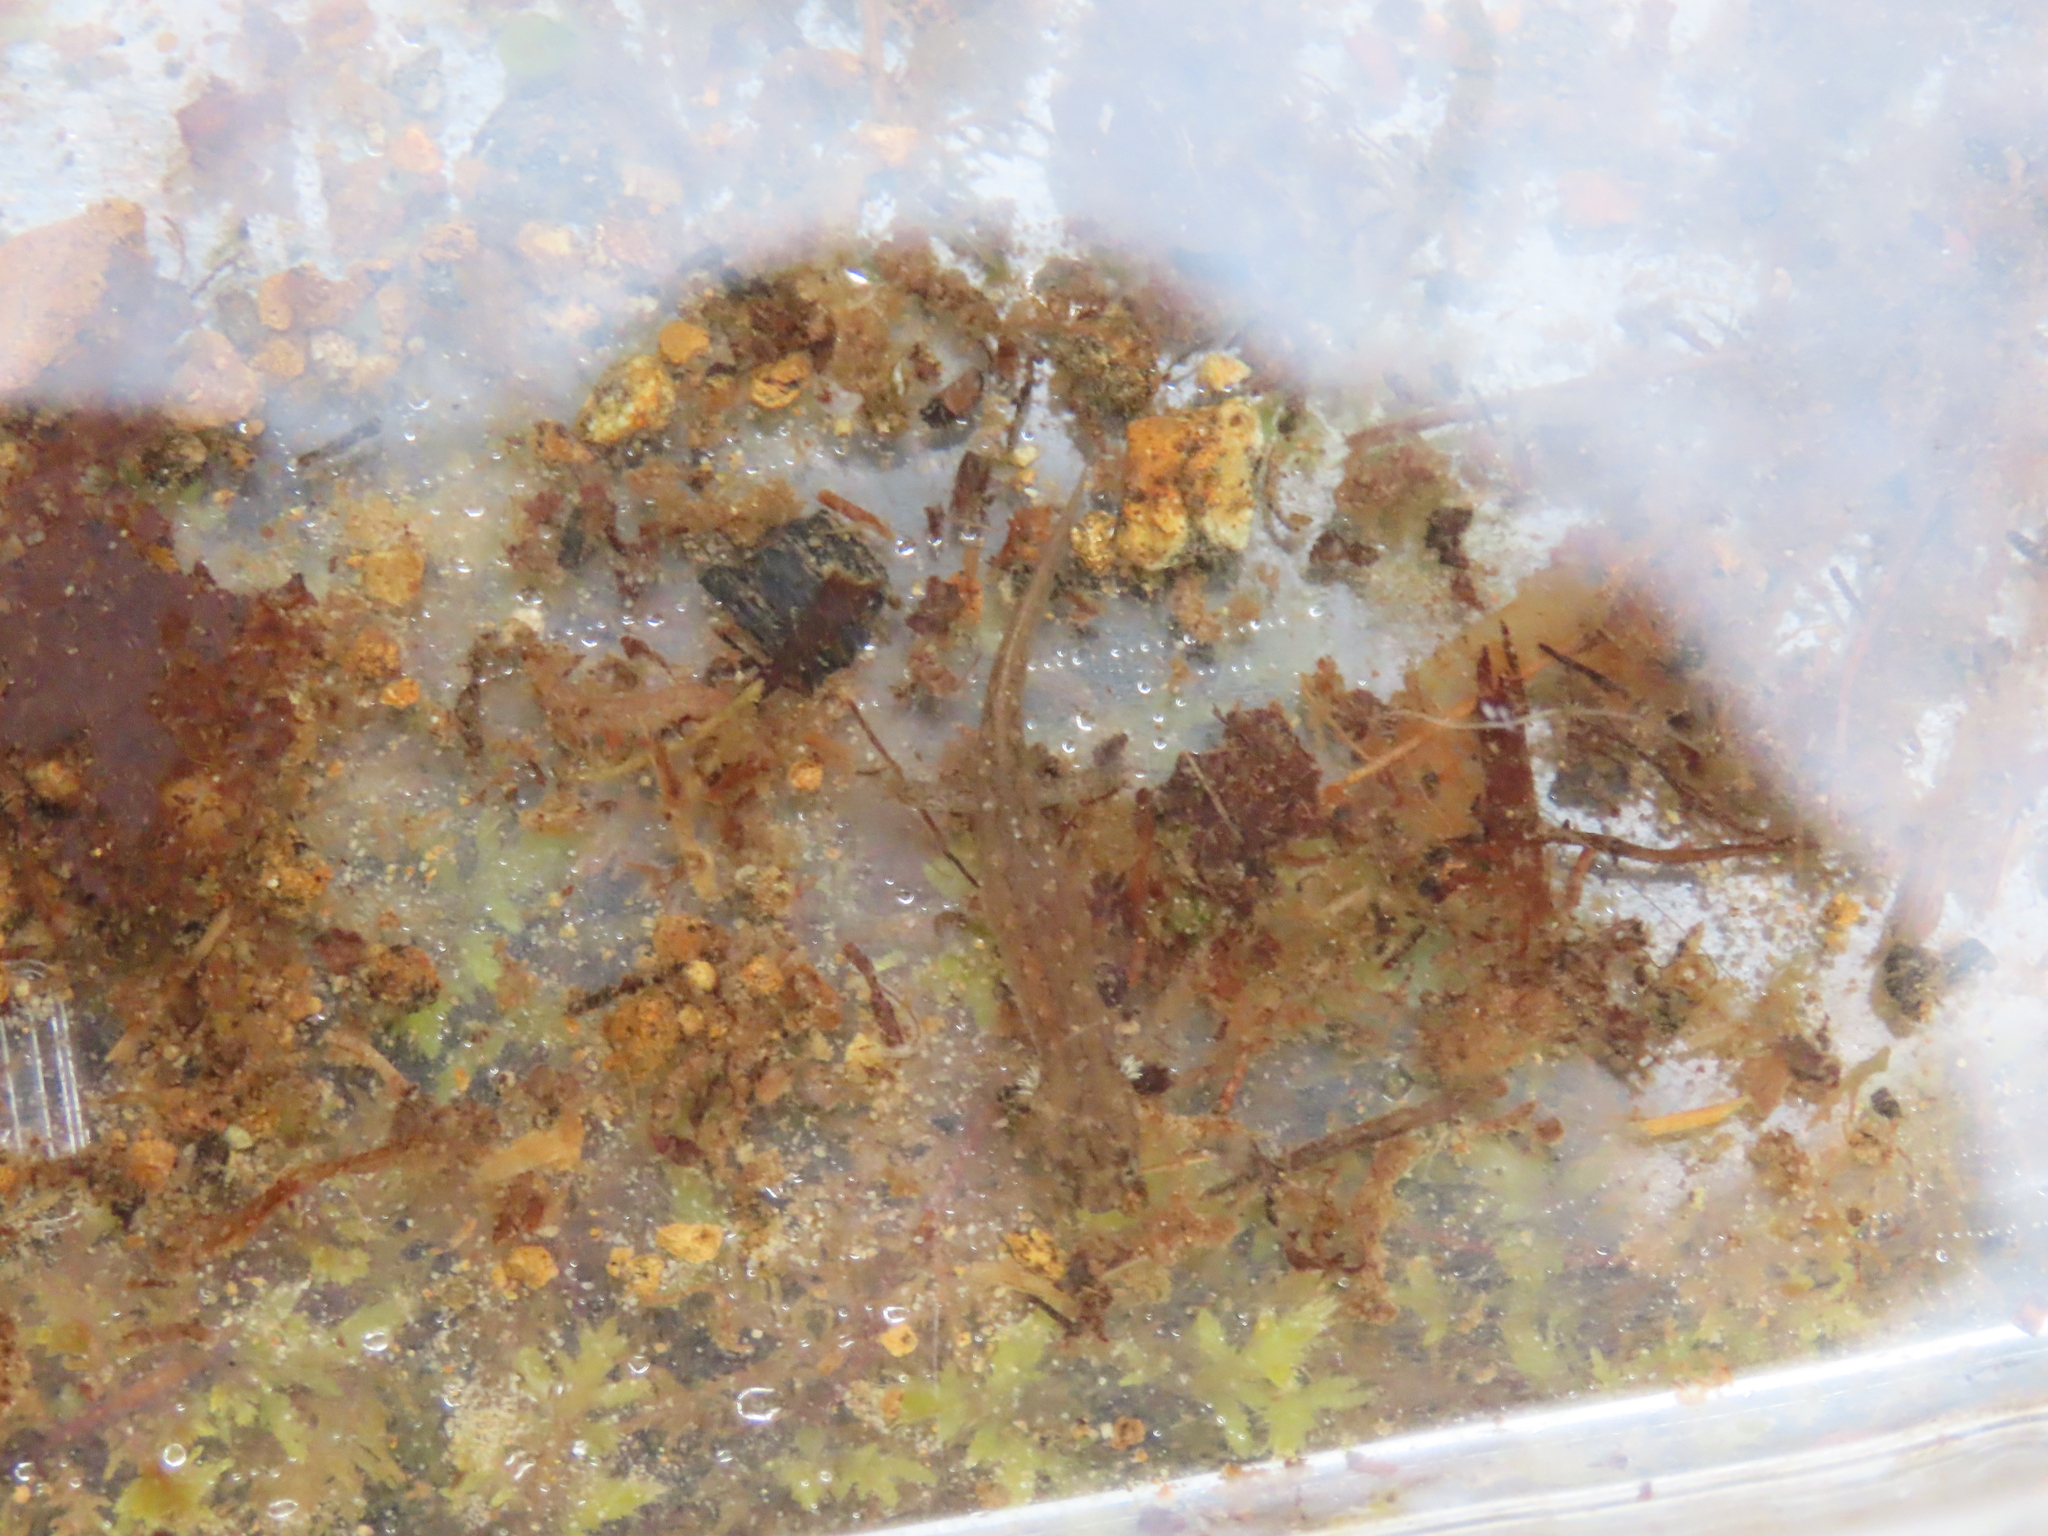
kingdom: Animalia
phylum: Chordata
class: Amphibia
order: Caudata
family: Plethodontidae
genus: Desmognathus
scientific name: Desmognathus fuscus
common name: Northern dusky salamander
